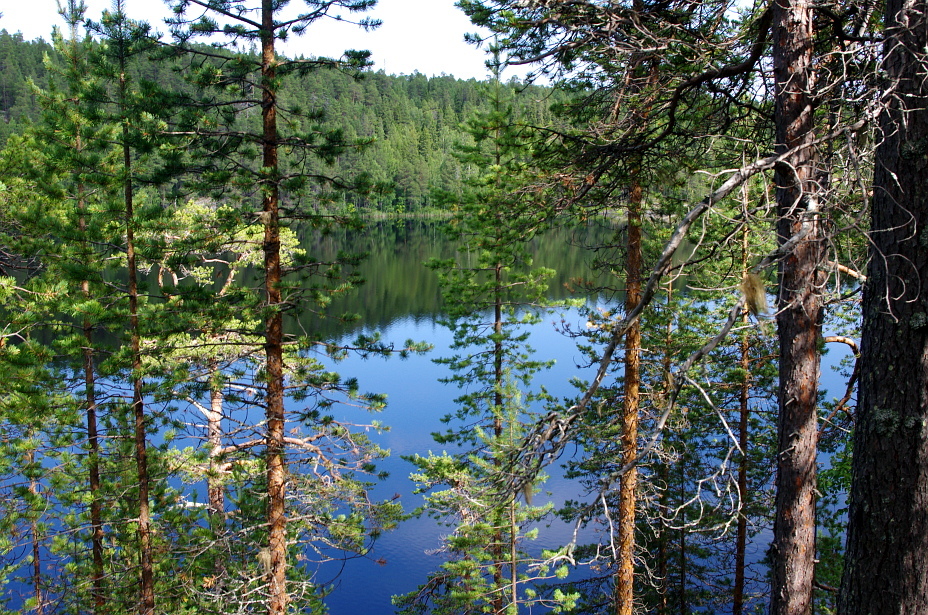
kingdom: Plantae
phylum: Tracheophyta
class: Pinopsida
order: Pinales
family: Pinaceae
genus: Pinus
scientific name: Pinus sylvestris
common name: Scots pine
